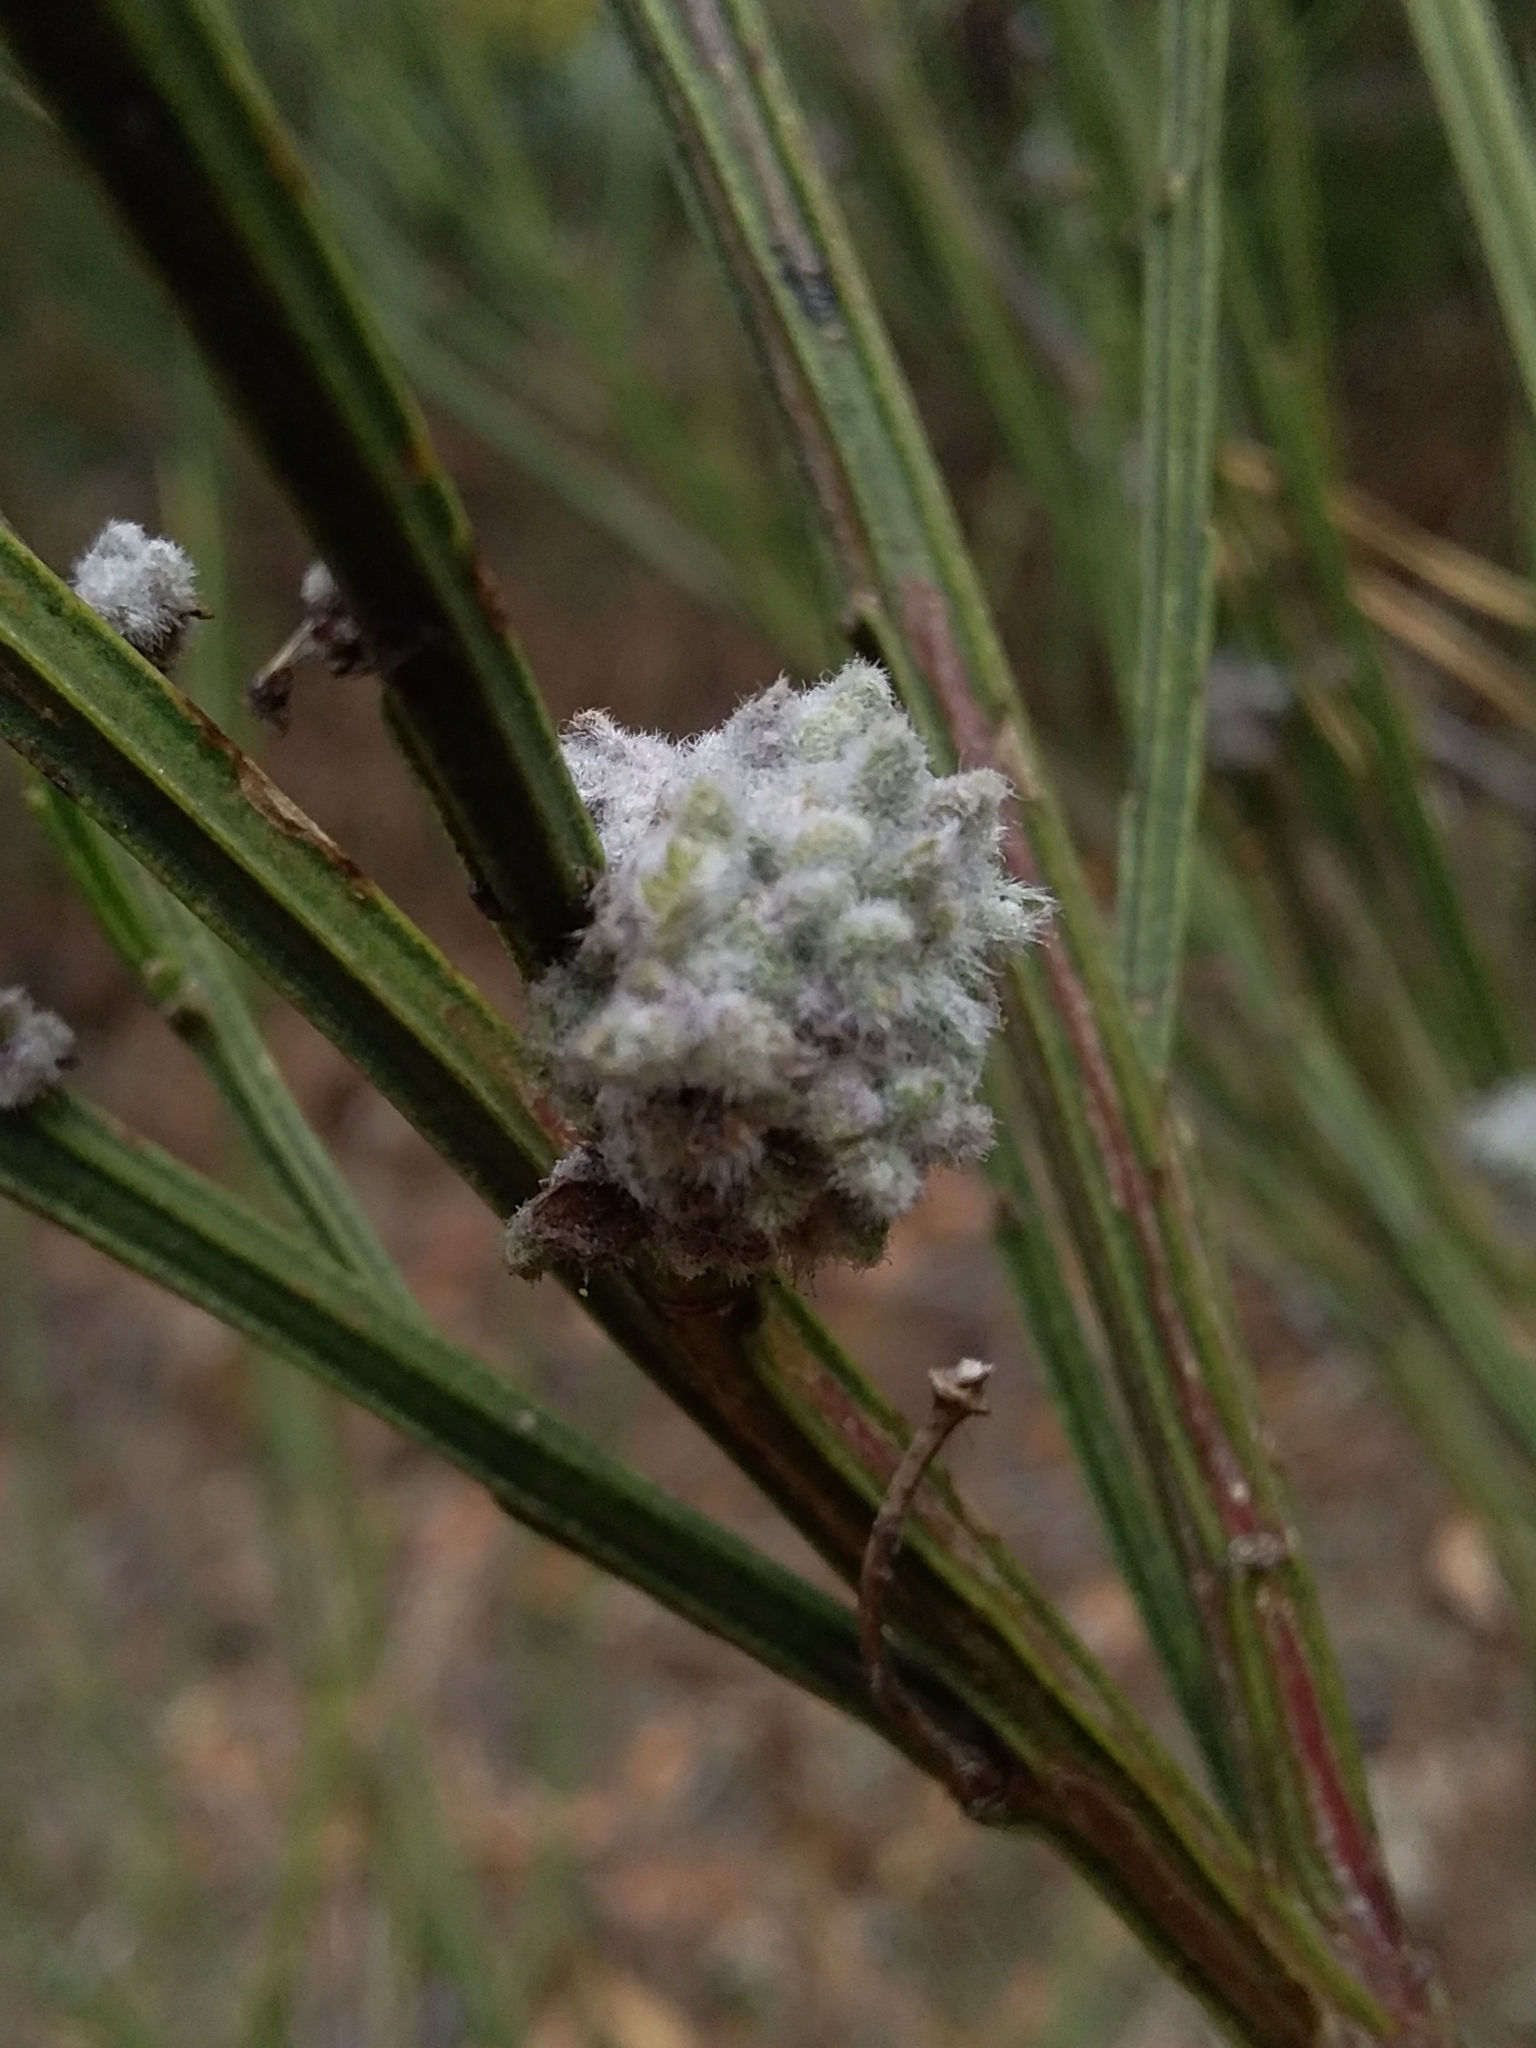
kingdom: Animalia
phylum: Arthropoda
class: Arachnida
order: Trombidiformes
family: Eriophyidae
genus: Aceria
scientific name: Aceria genistae
